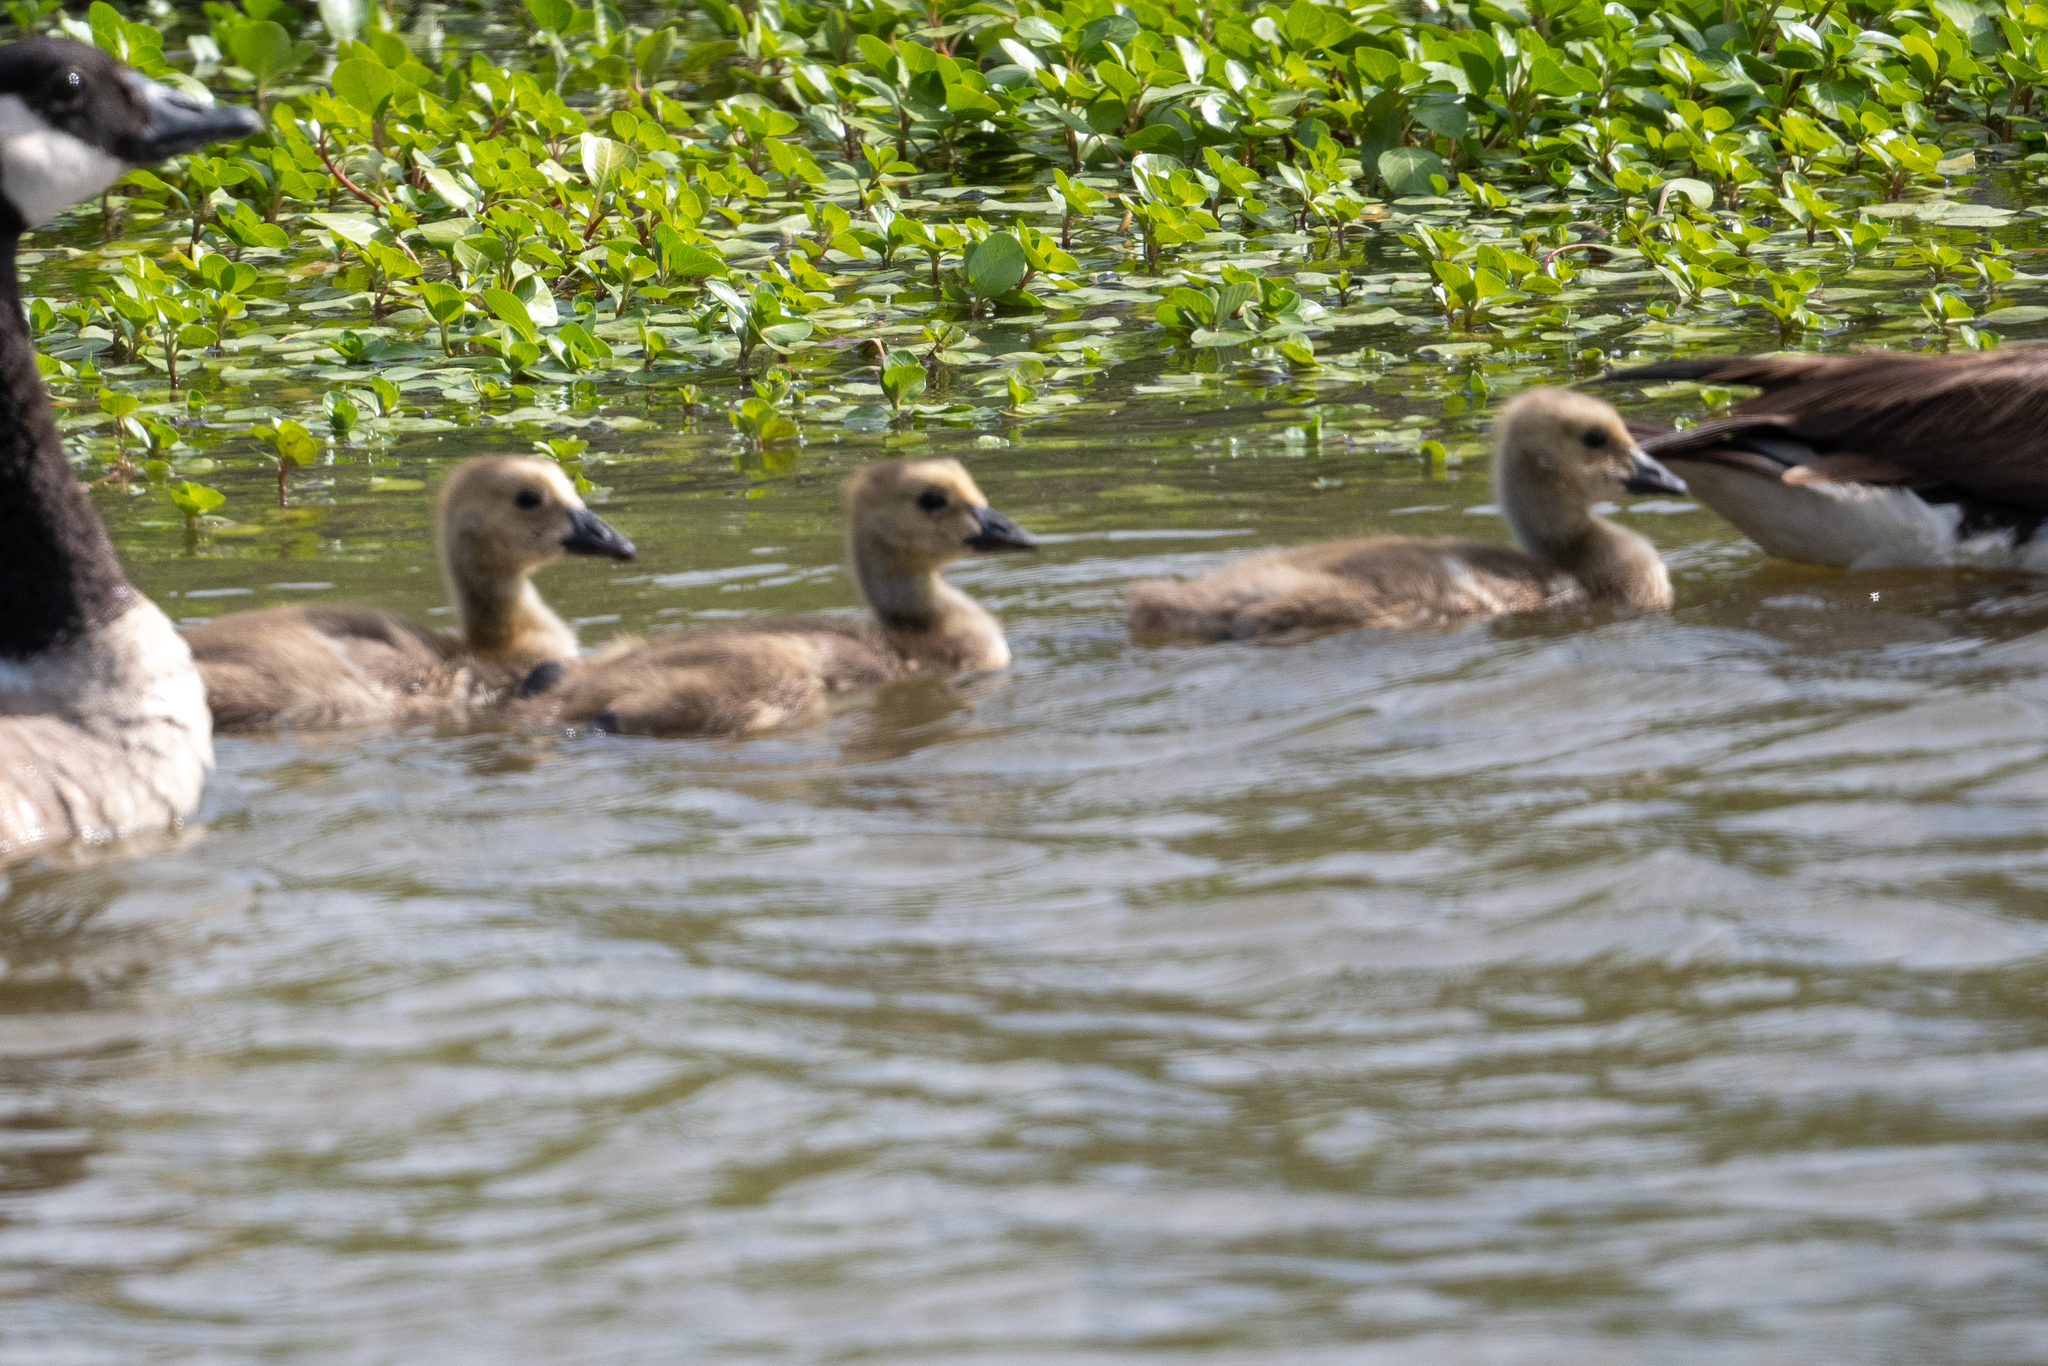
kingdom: Animalia
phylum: Chordata
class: Aves
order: Anseriformes
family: Anatidae
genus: Branta
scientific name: Branta canadensis
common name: Canada goose
